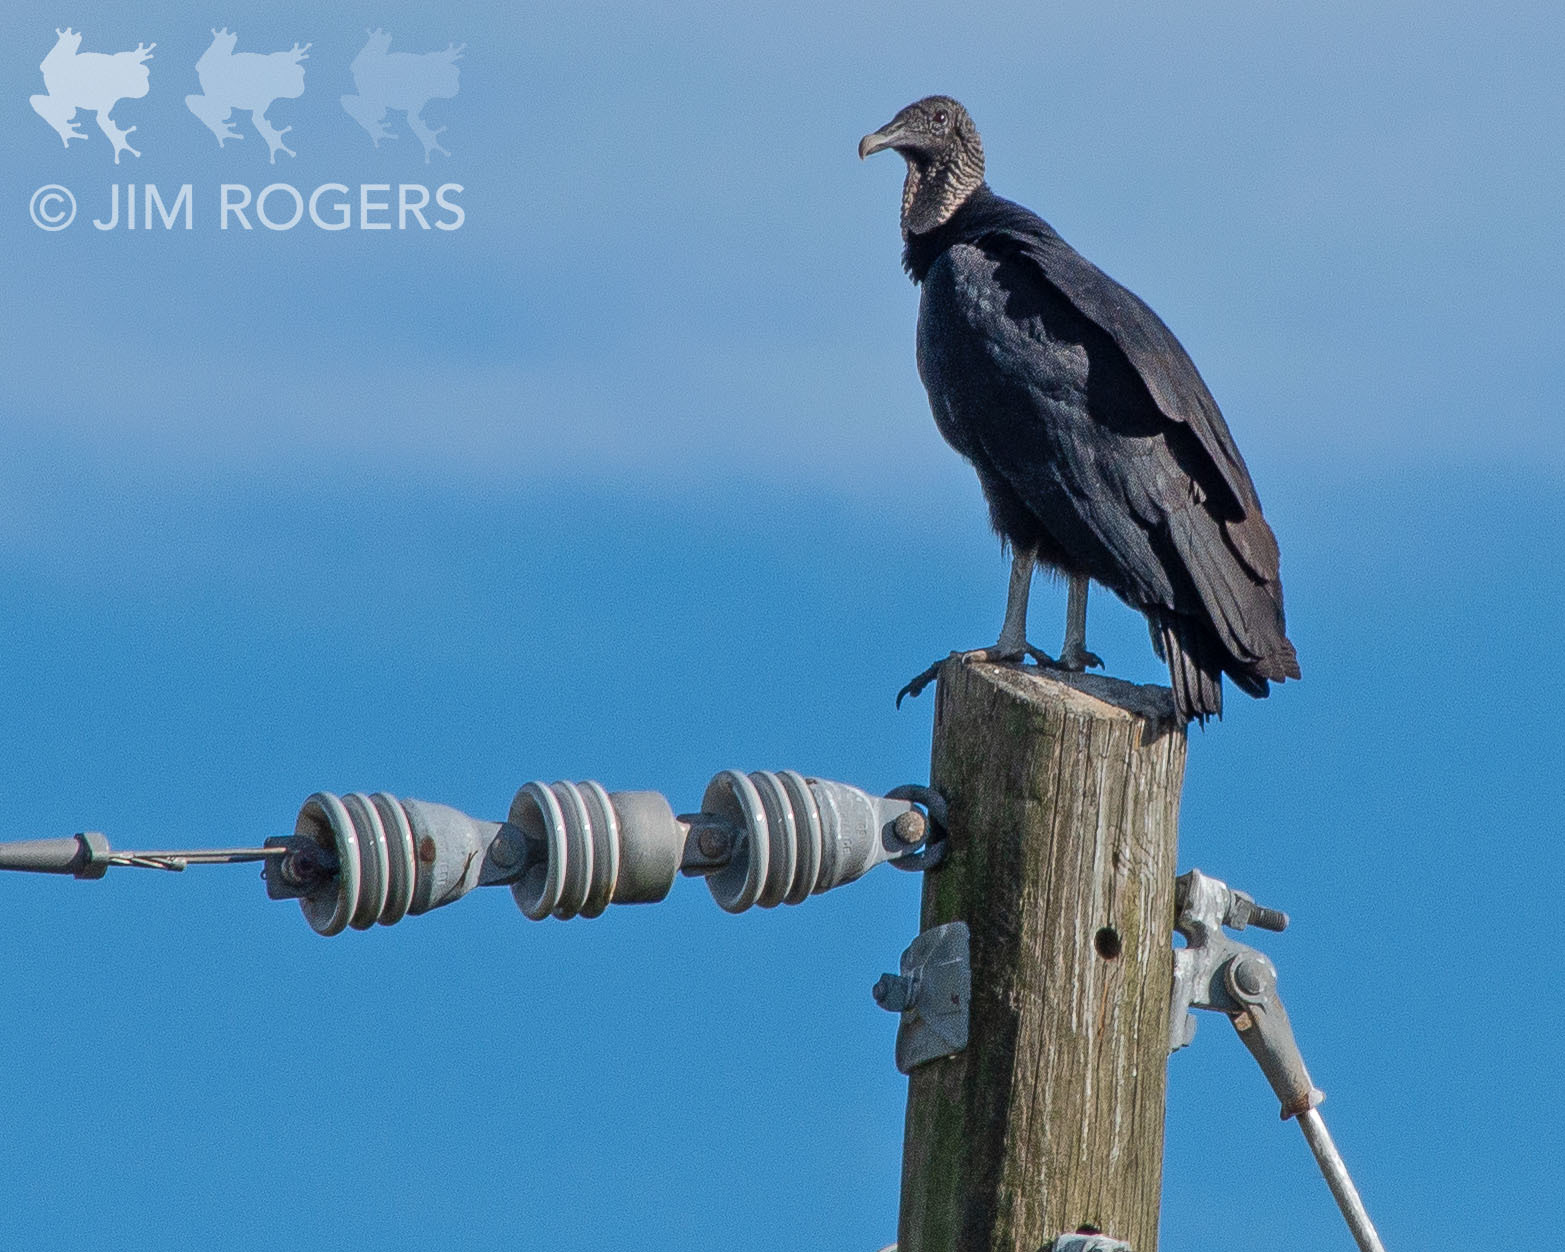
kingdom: Animalia
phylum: Chordata
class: Aves
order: Accipitriformes
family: Cathartidae
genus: Coragyps
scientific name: Coragyps atratus
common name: Black vulture
